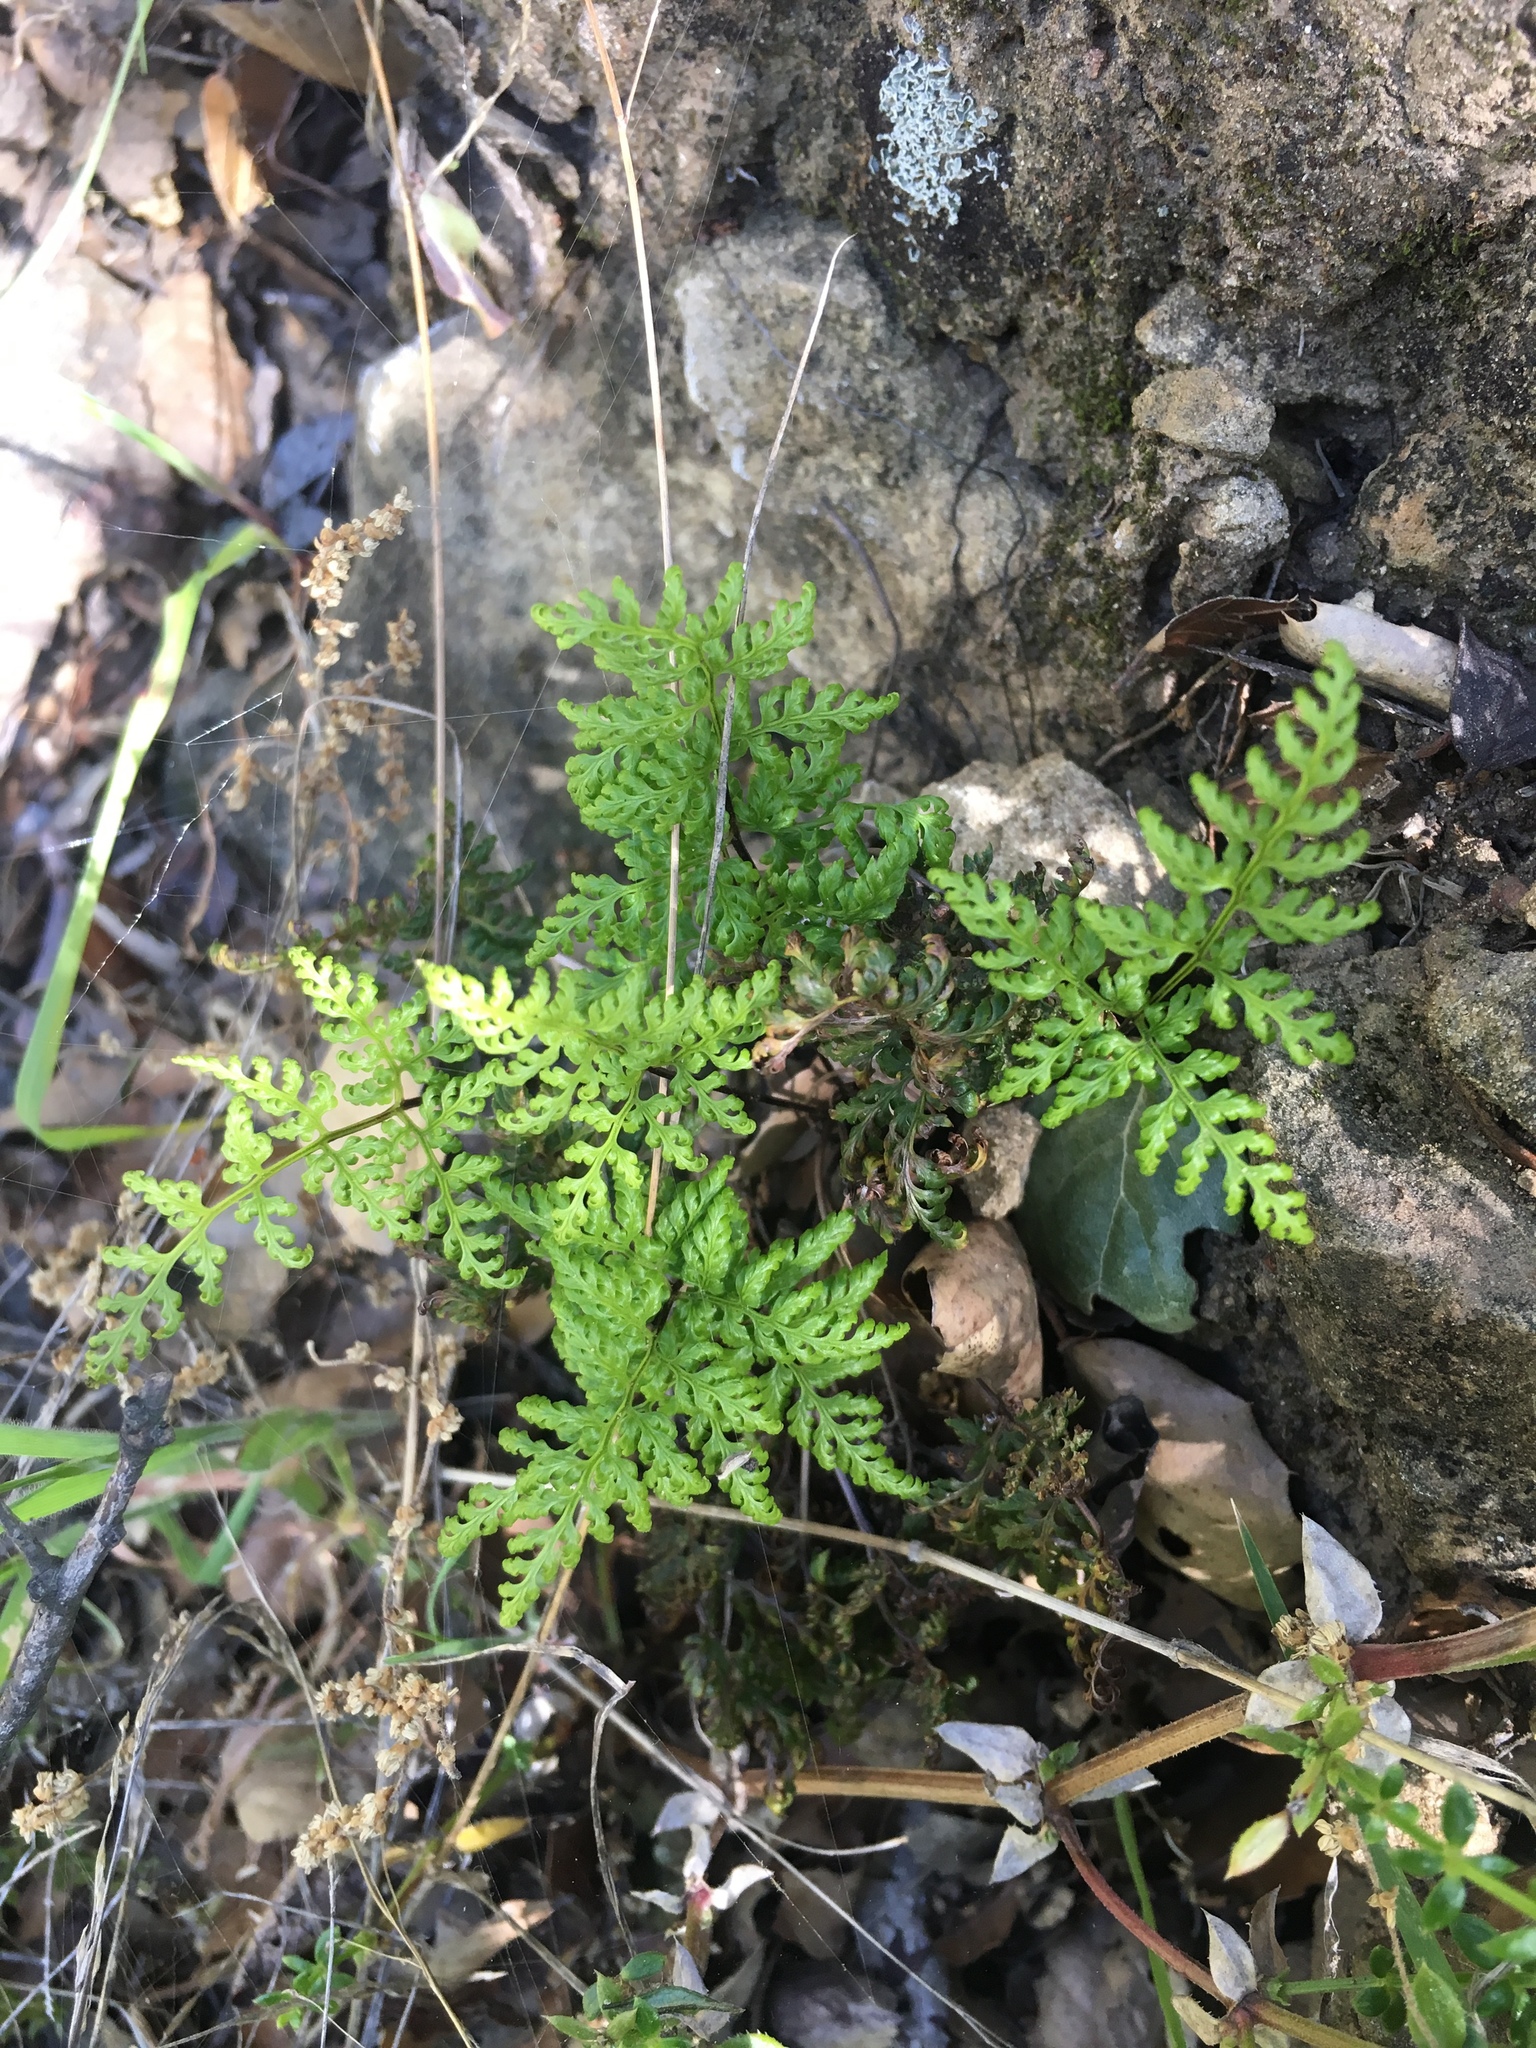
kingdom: Plantae
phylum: Tracheophyta
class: Polypodiopsida
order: Polypodiales
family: Pteridaceae
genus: Aspidotis
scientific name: Aspidotis californica
